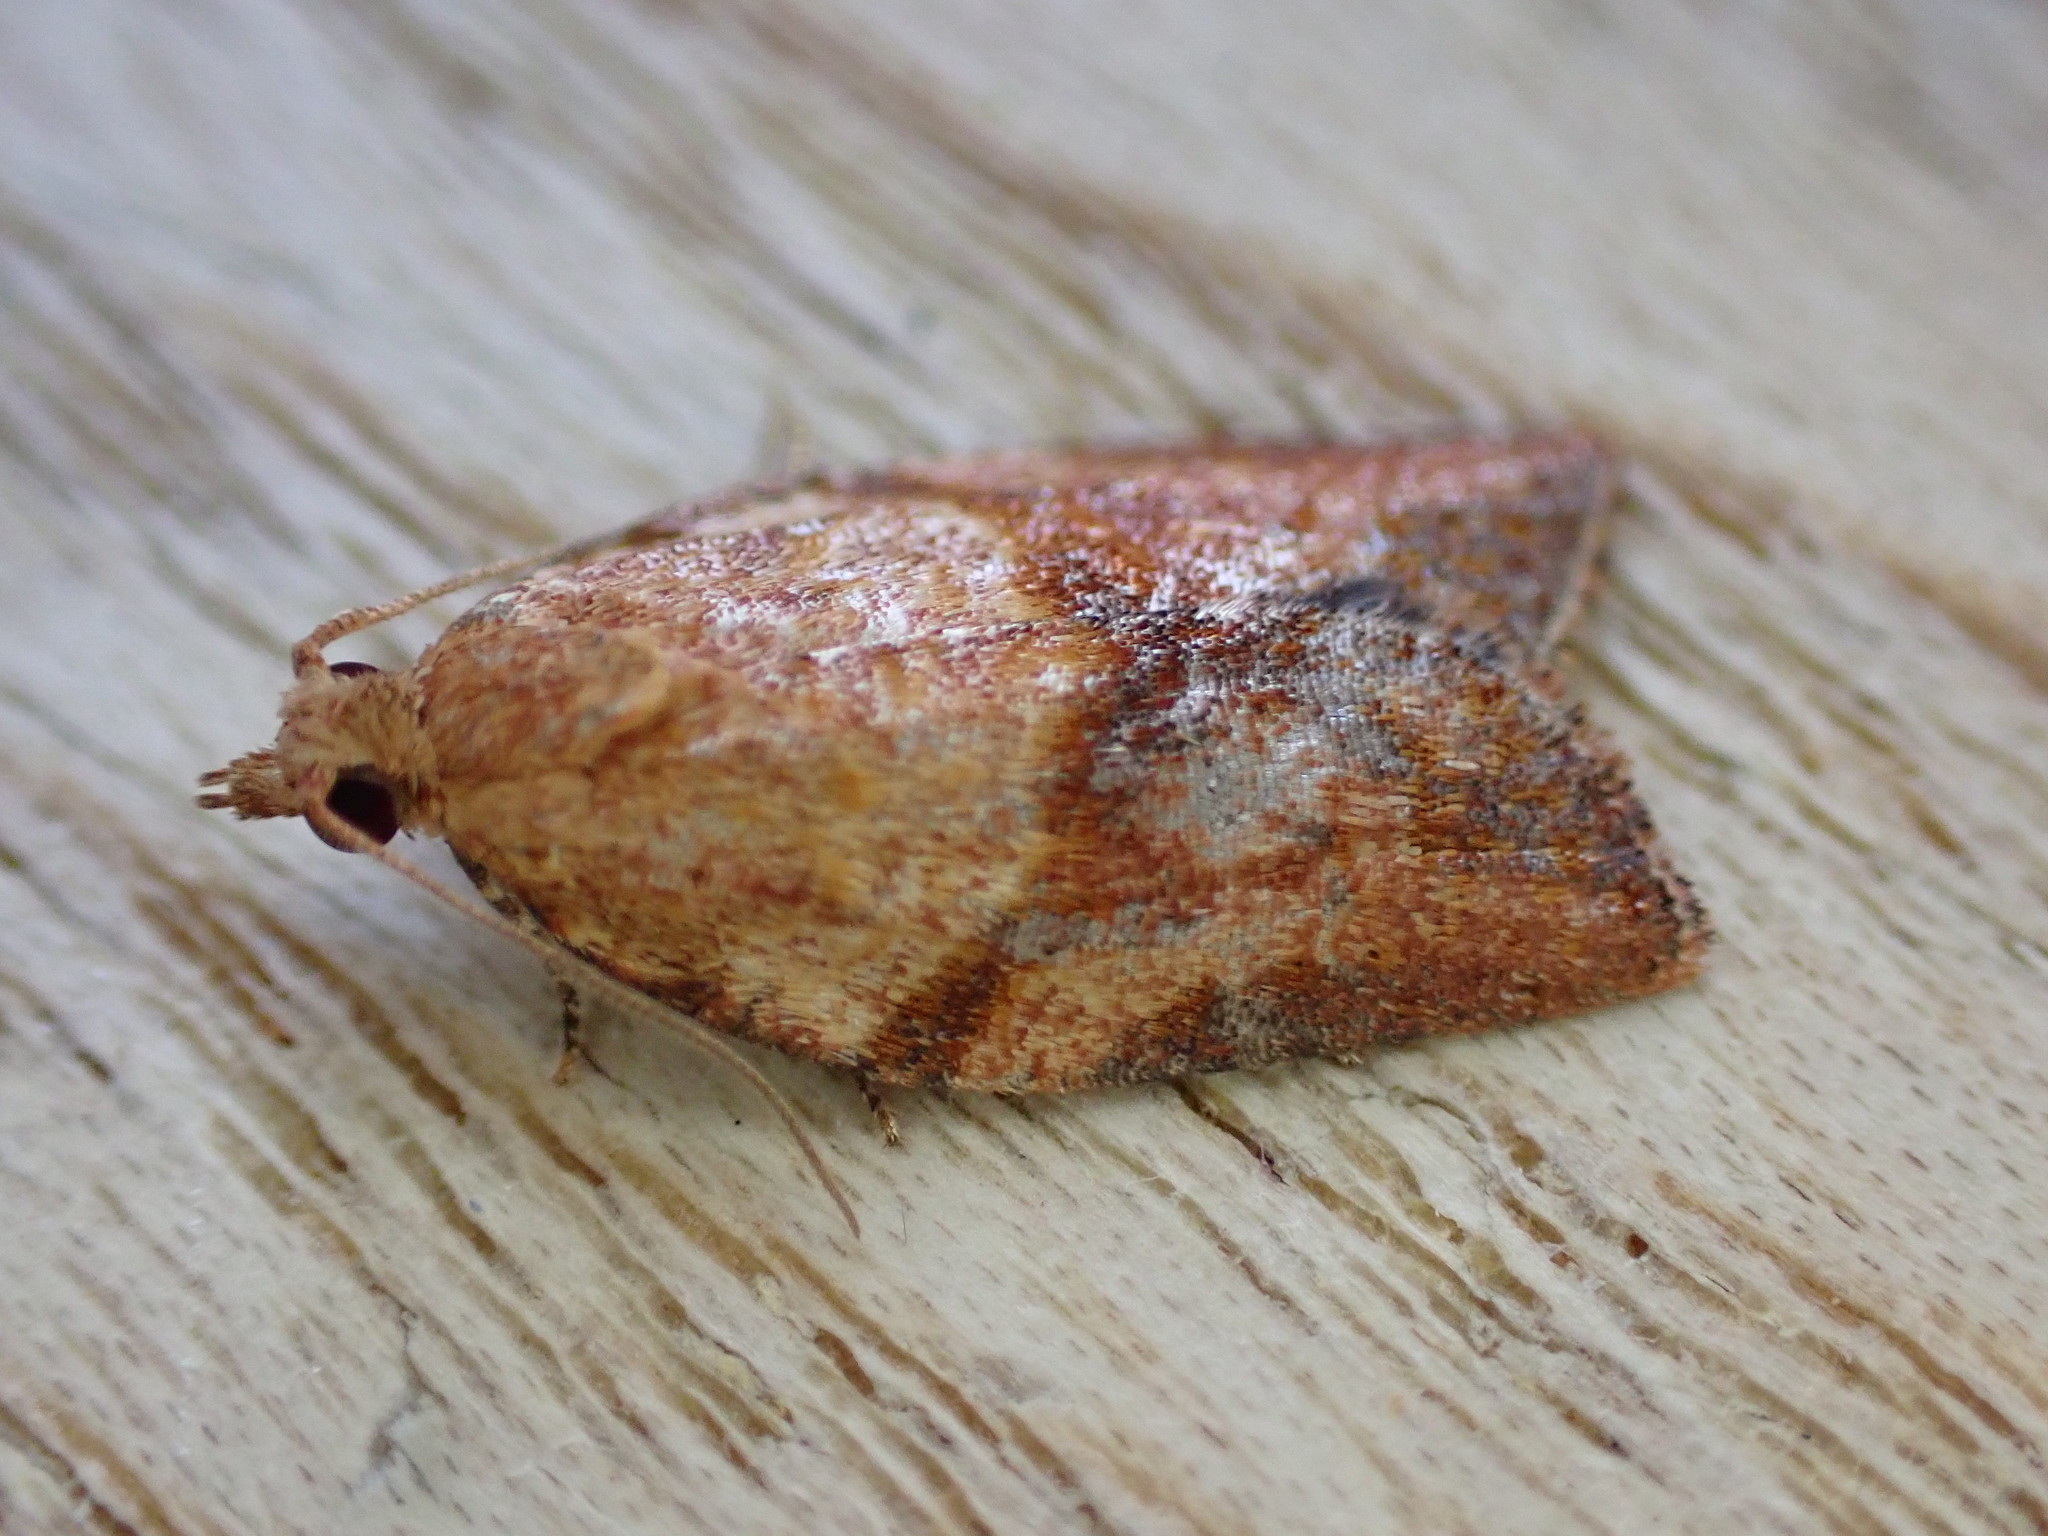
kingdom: Animalia
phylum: Arthropoda
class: Insecta
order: Lepidoptera
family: Tortricidae
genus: Epiphyas
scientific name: Epiphyas postvittana
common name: Light brown apple moth
